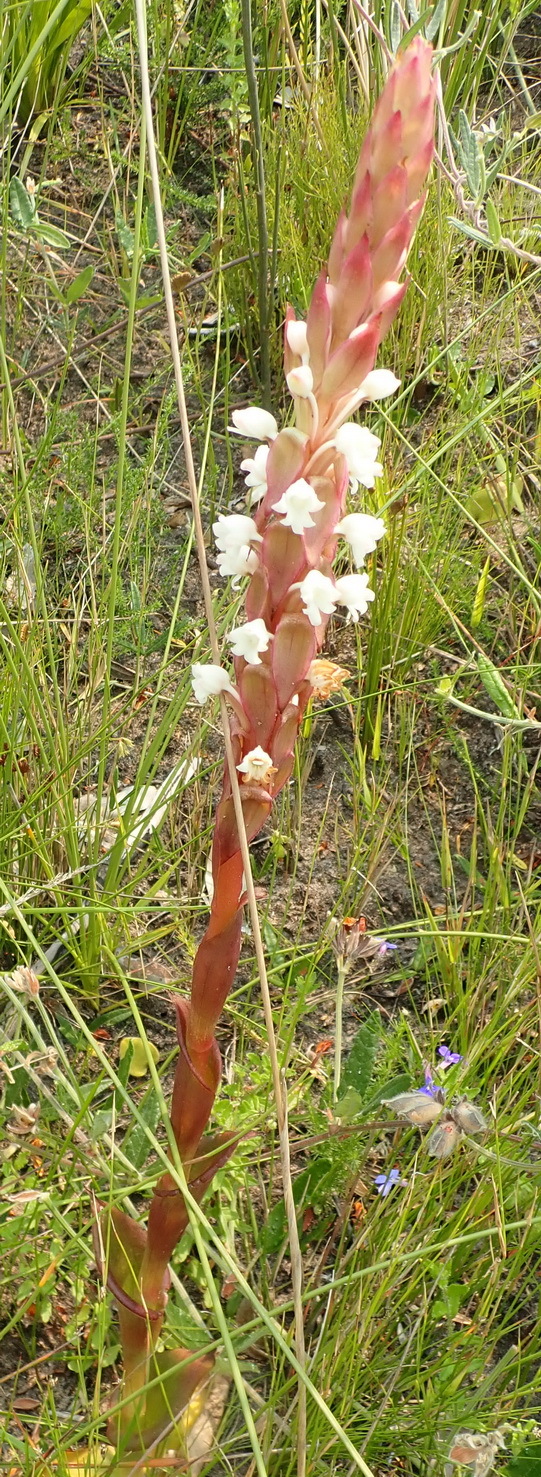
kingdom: Plantae
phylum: Tracheophyta
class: Liliopsida
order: Asparagales
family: Orchidaceae
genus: Satyrium
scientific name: Satyrium acuminatum
